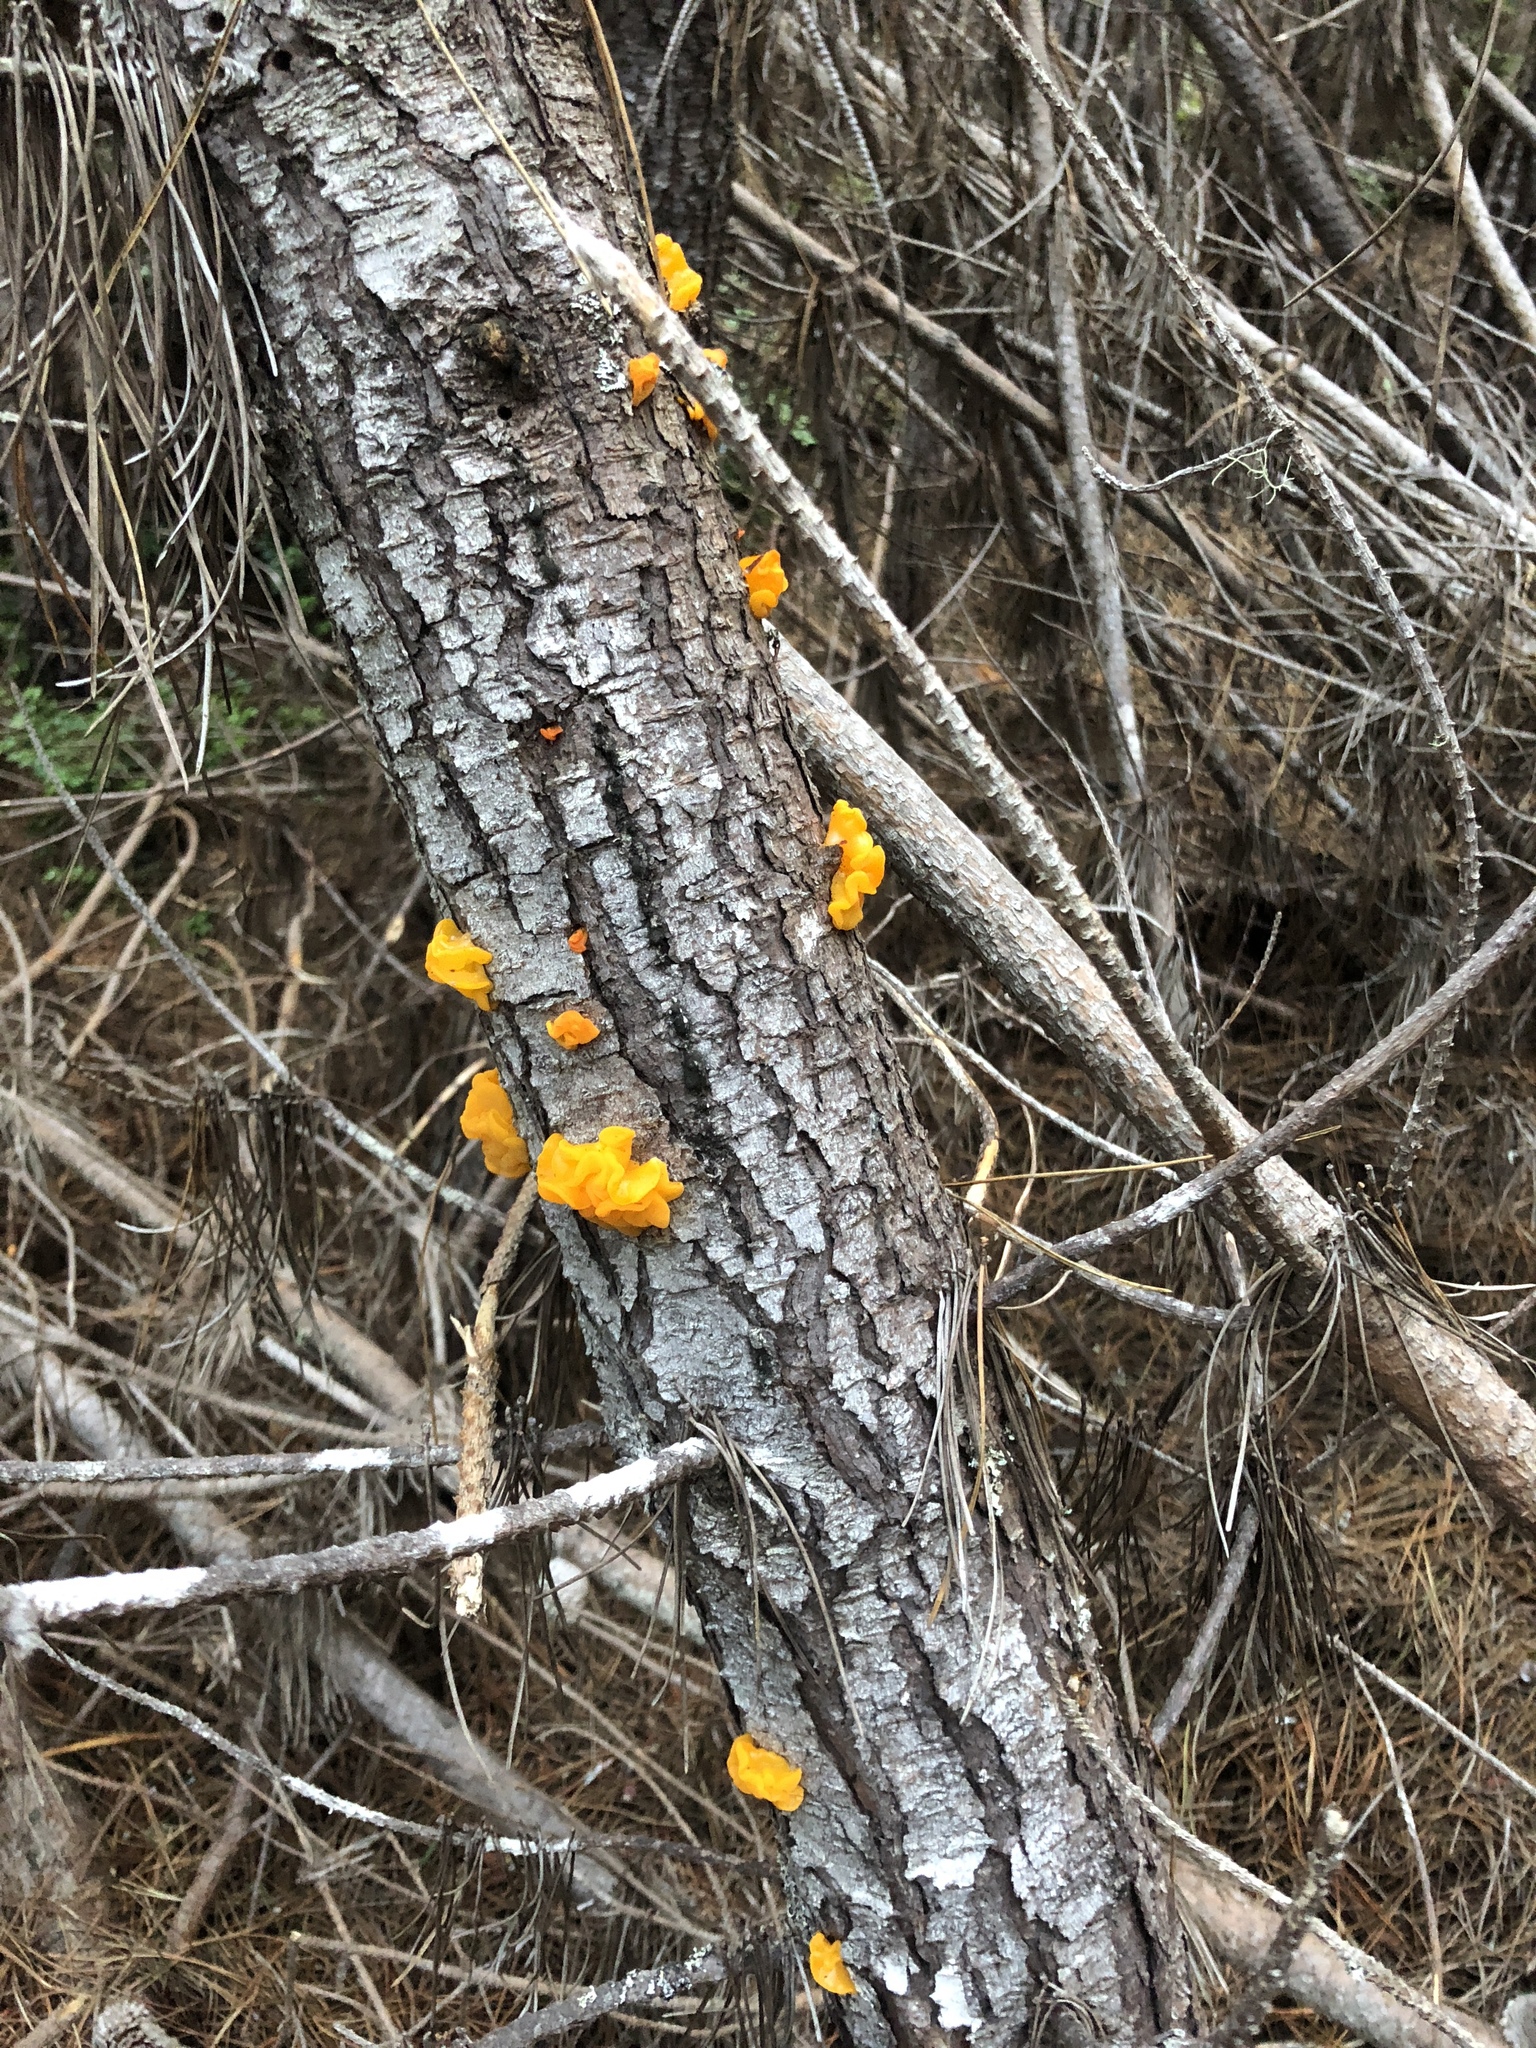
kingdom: Fungi
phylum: Basidiomycota
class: Tremellomycetes
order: Tremellales
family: Tremellaceae
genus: Tremella
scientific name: Tremella mesenterica
